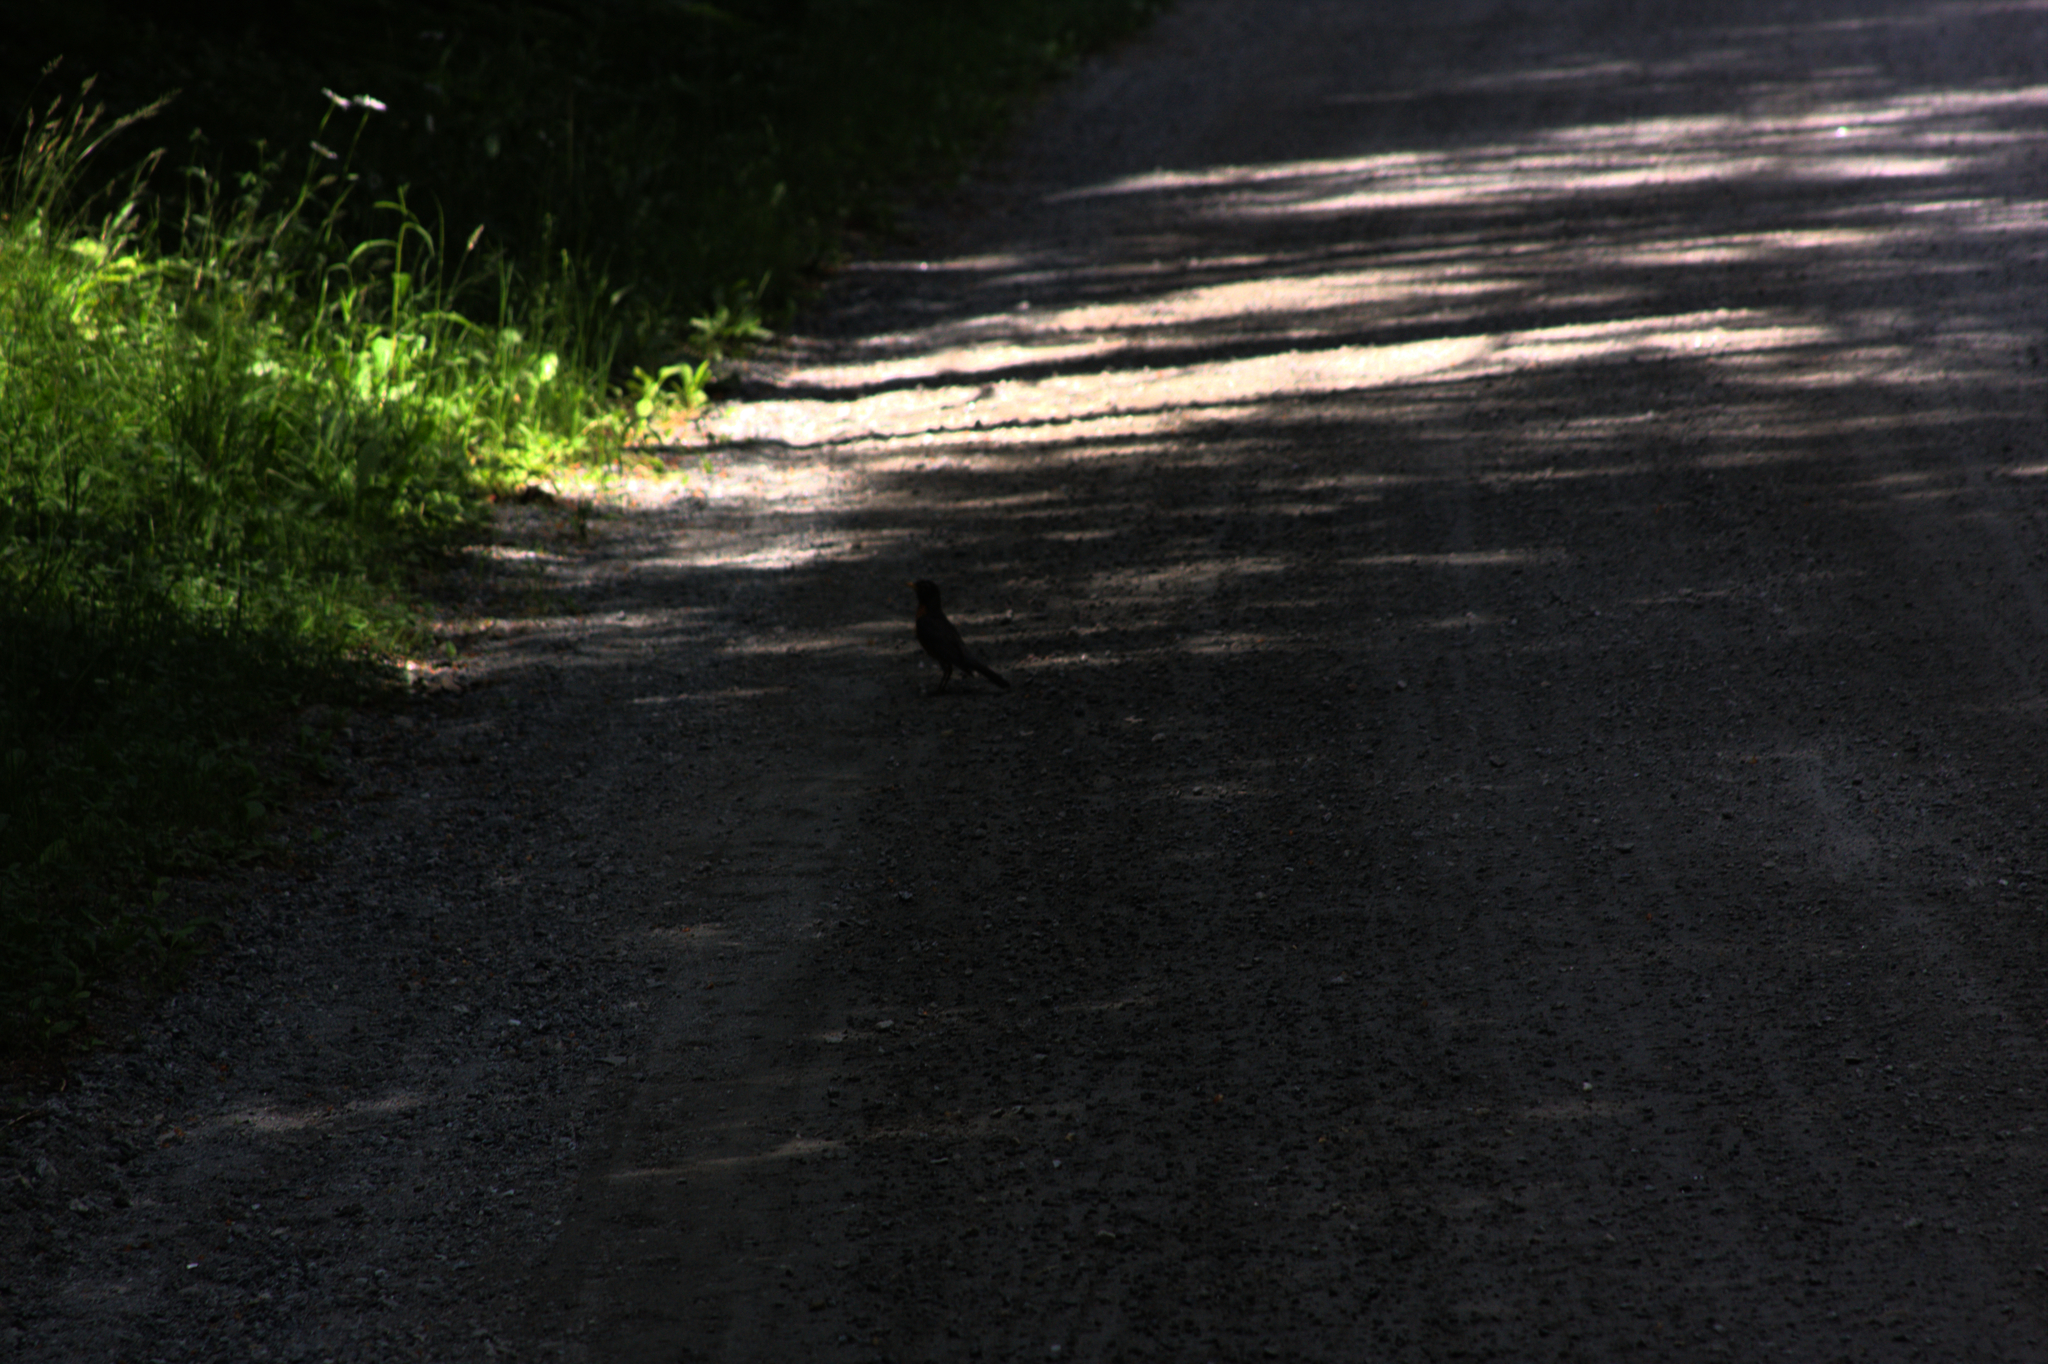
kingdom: Animalia
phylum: Chordata
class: Aves
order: Passeriformes
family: Turdidae
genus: Turdus
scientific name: Turdus migratorius
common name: American robin
